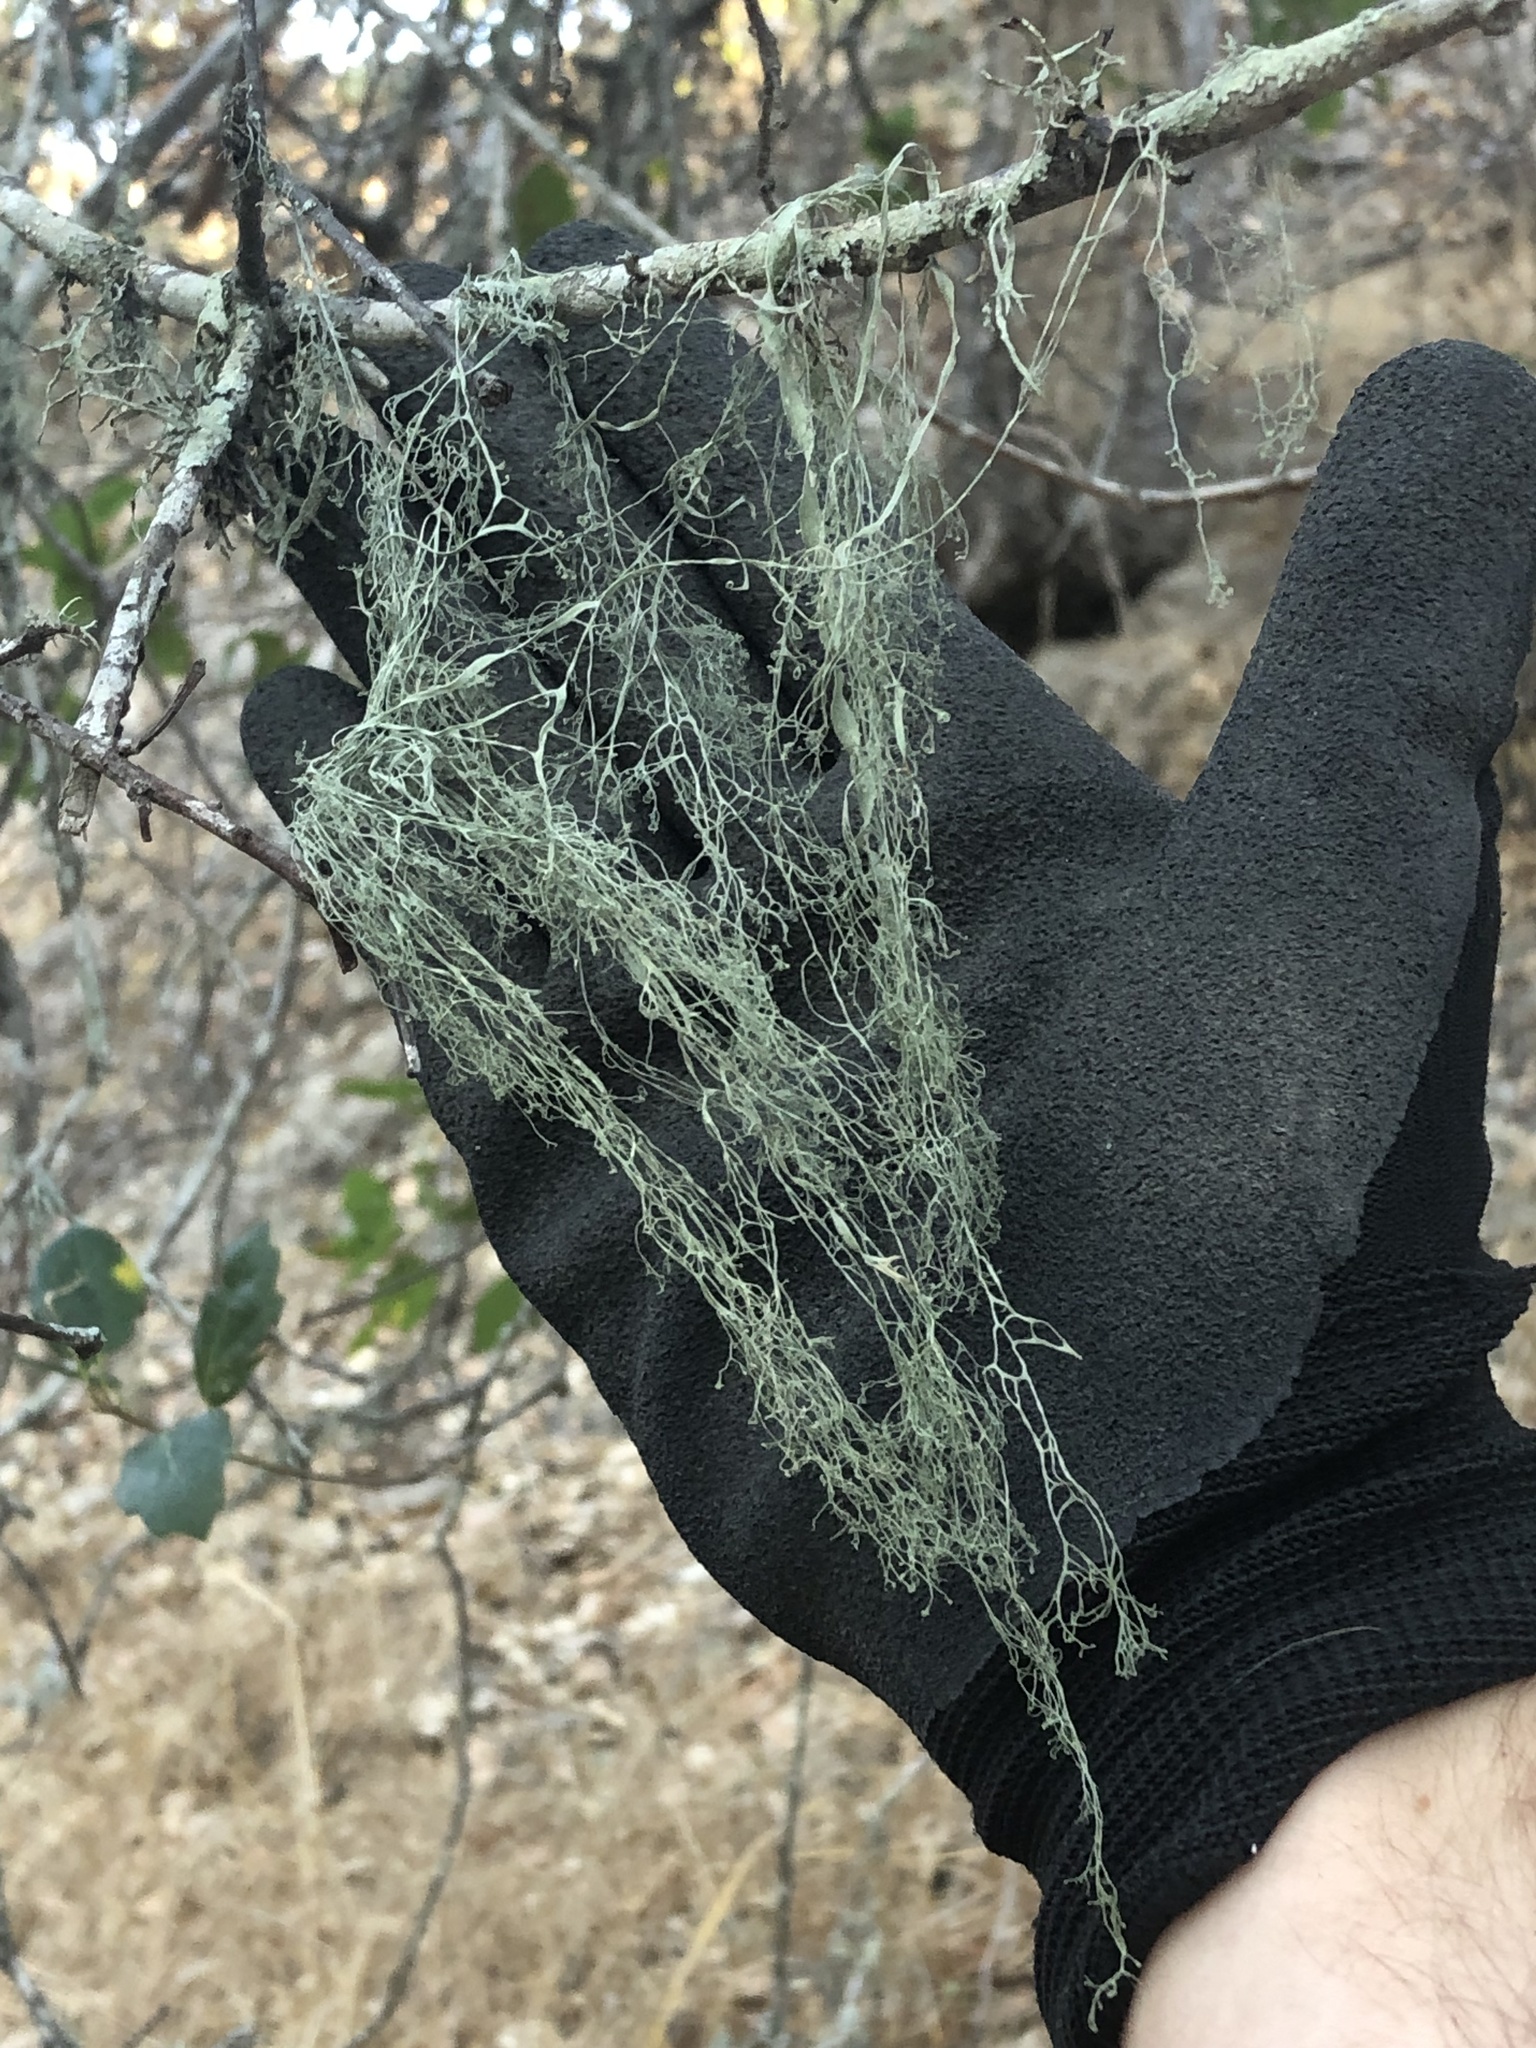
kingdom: Fungi
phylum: Ascomycota
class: Lecanoromycetes
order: Lecanorales
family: Ramalinaceae
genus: Ramalina
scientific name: Ramalina menziesii
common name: Lace lichen
